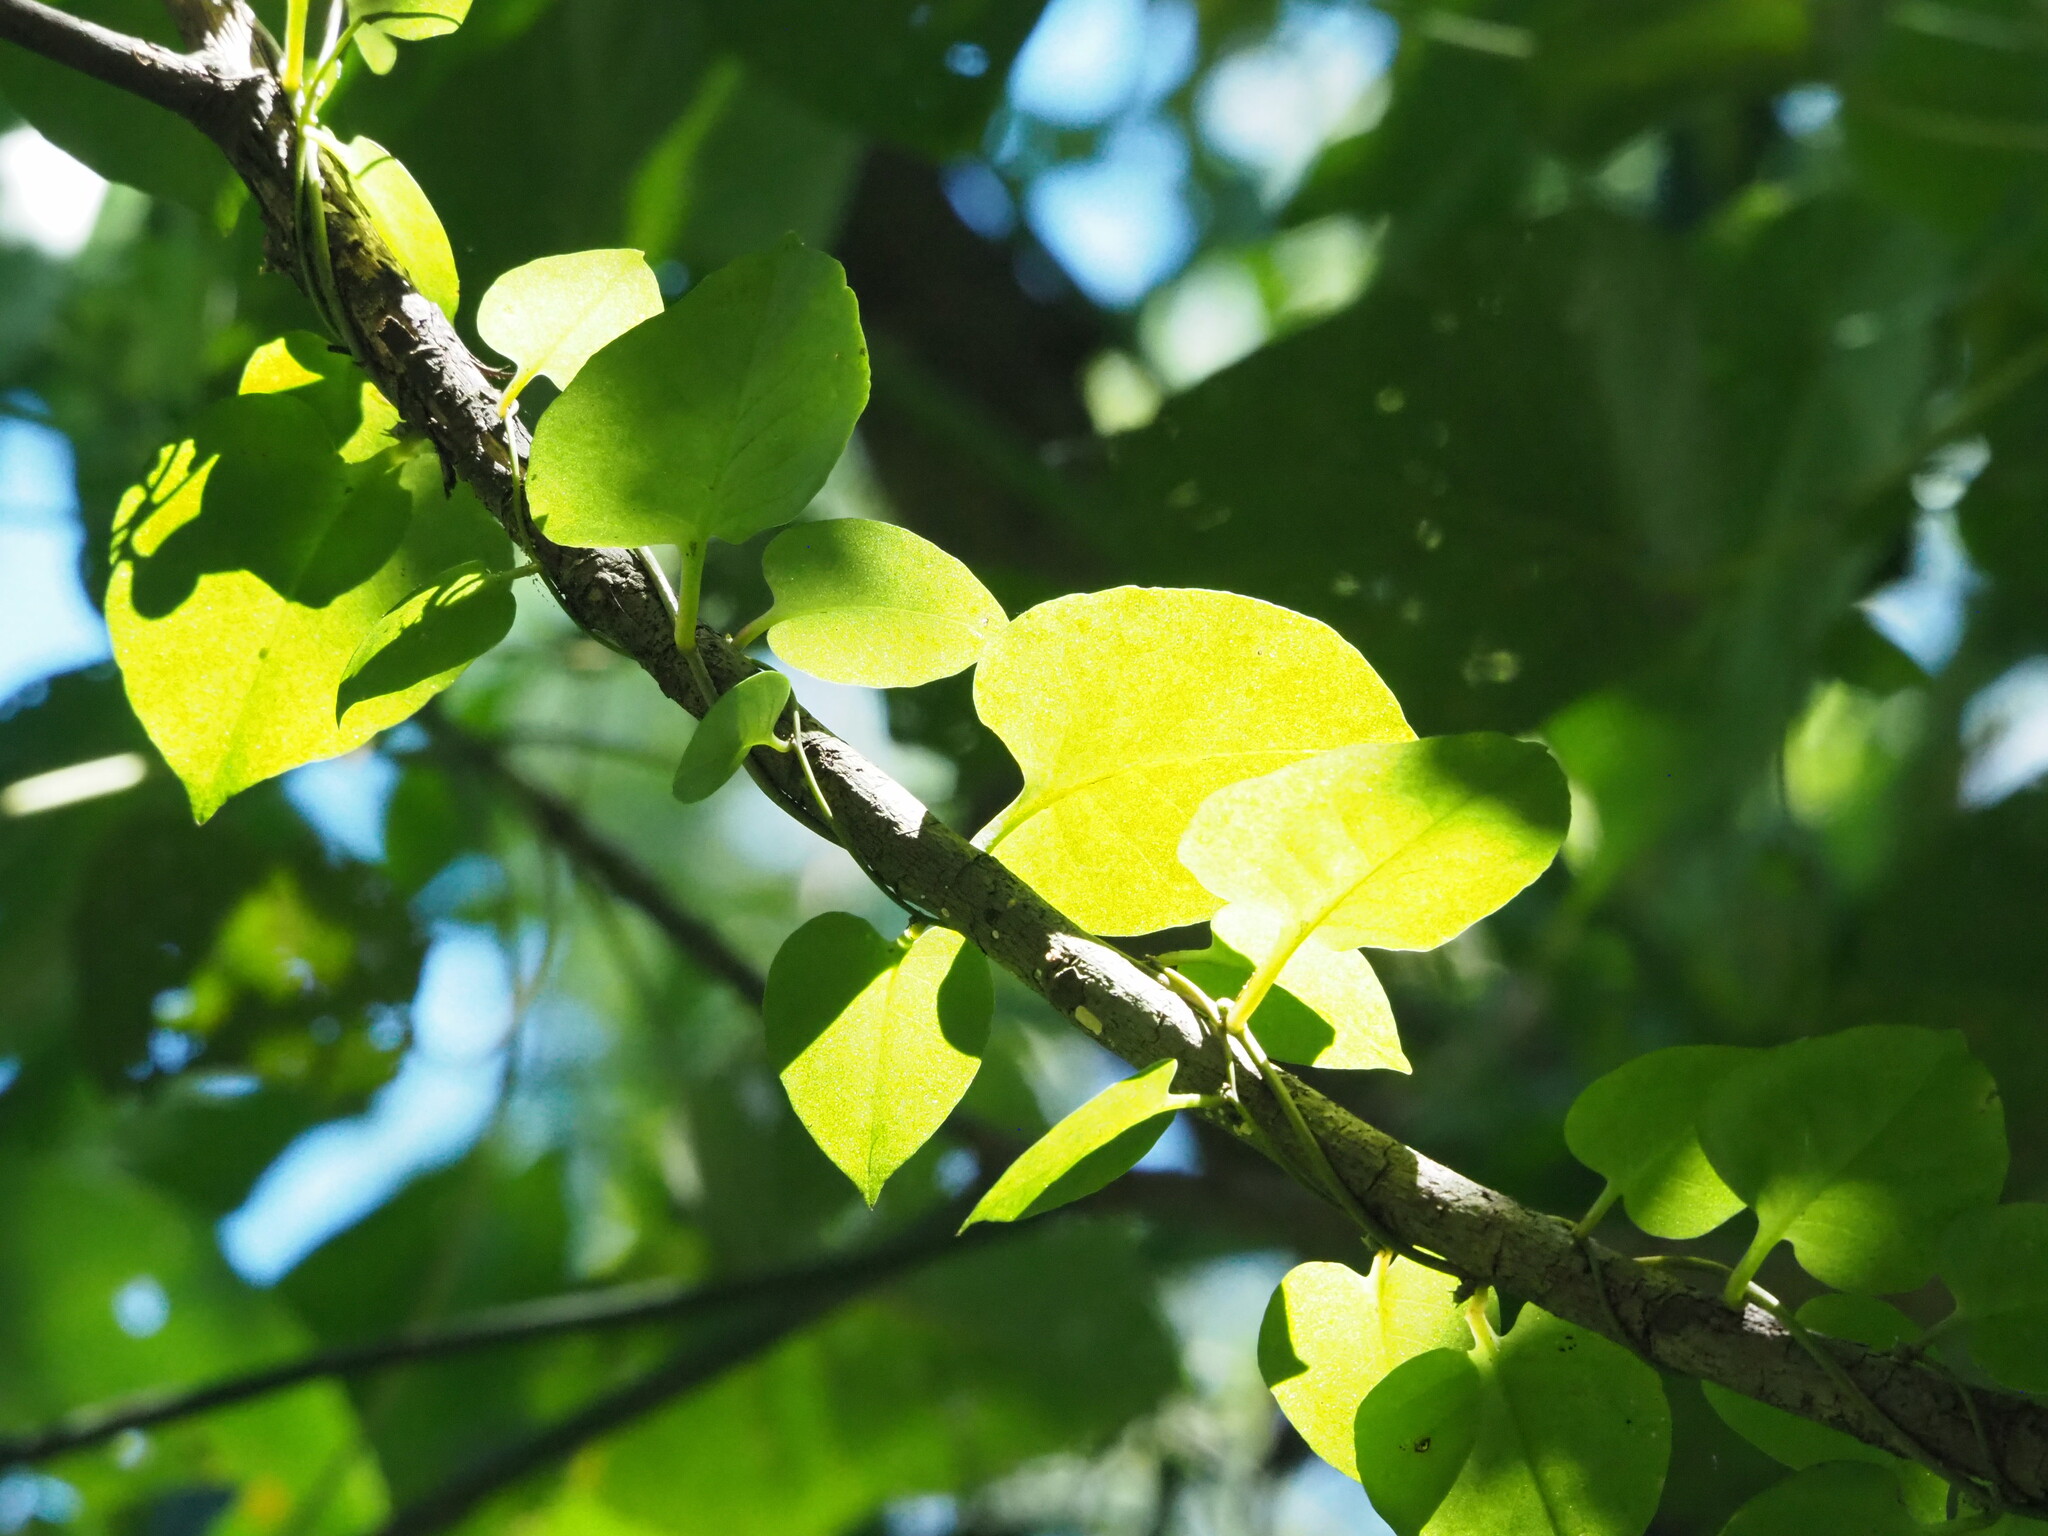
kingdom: Plantae
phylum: Tracheophyta
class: Magnoliopsida
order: Caryophyllales
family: Basellaceae
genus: Anredera
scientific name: Anredera cordifolia
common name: Heartleaf madeiravine
